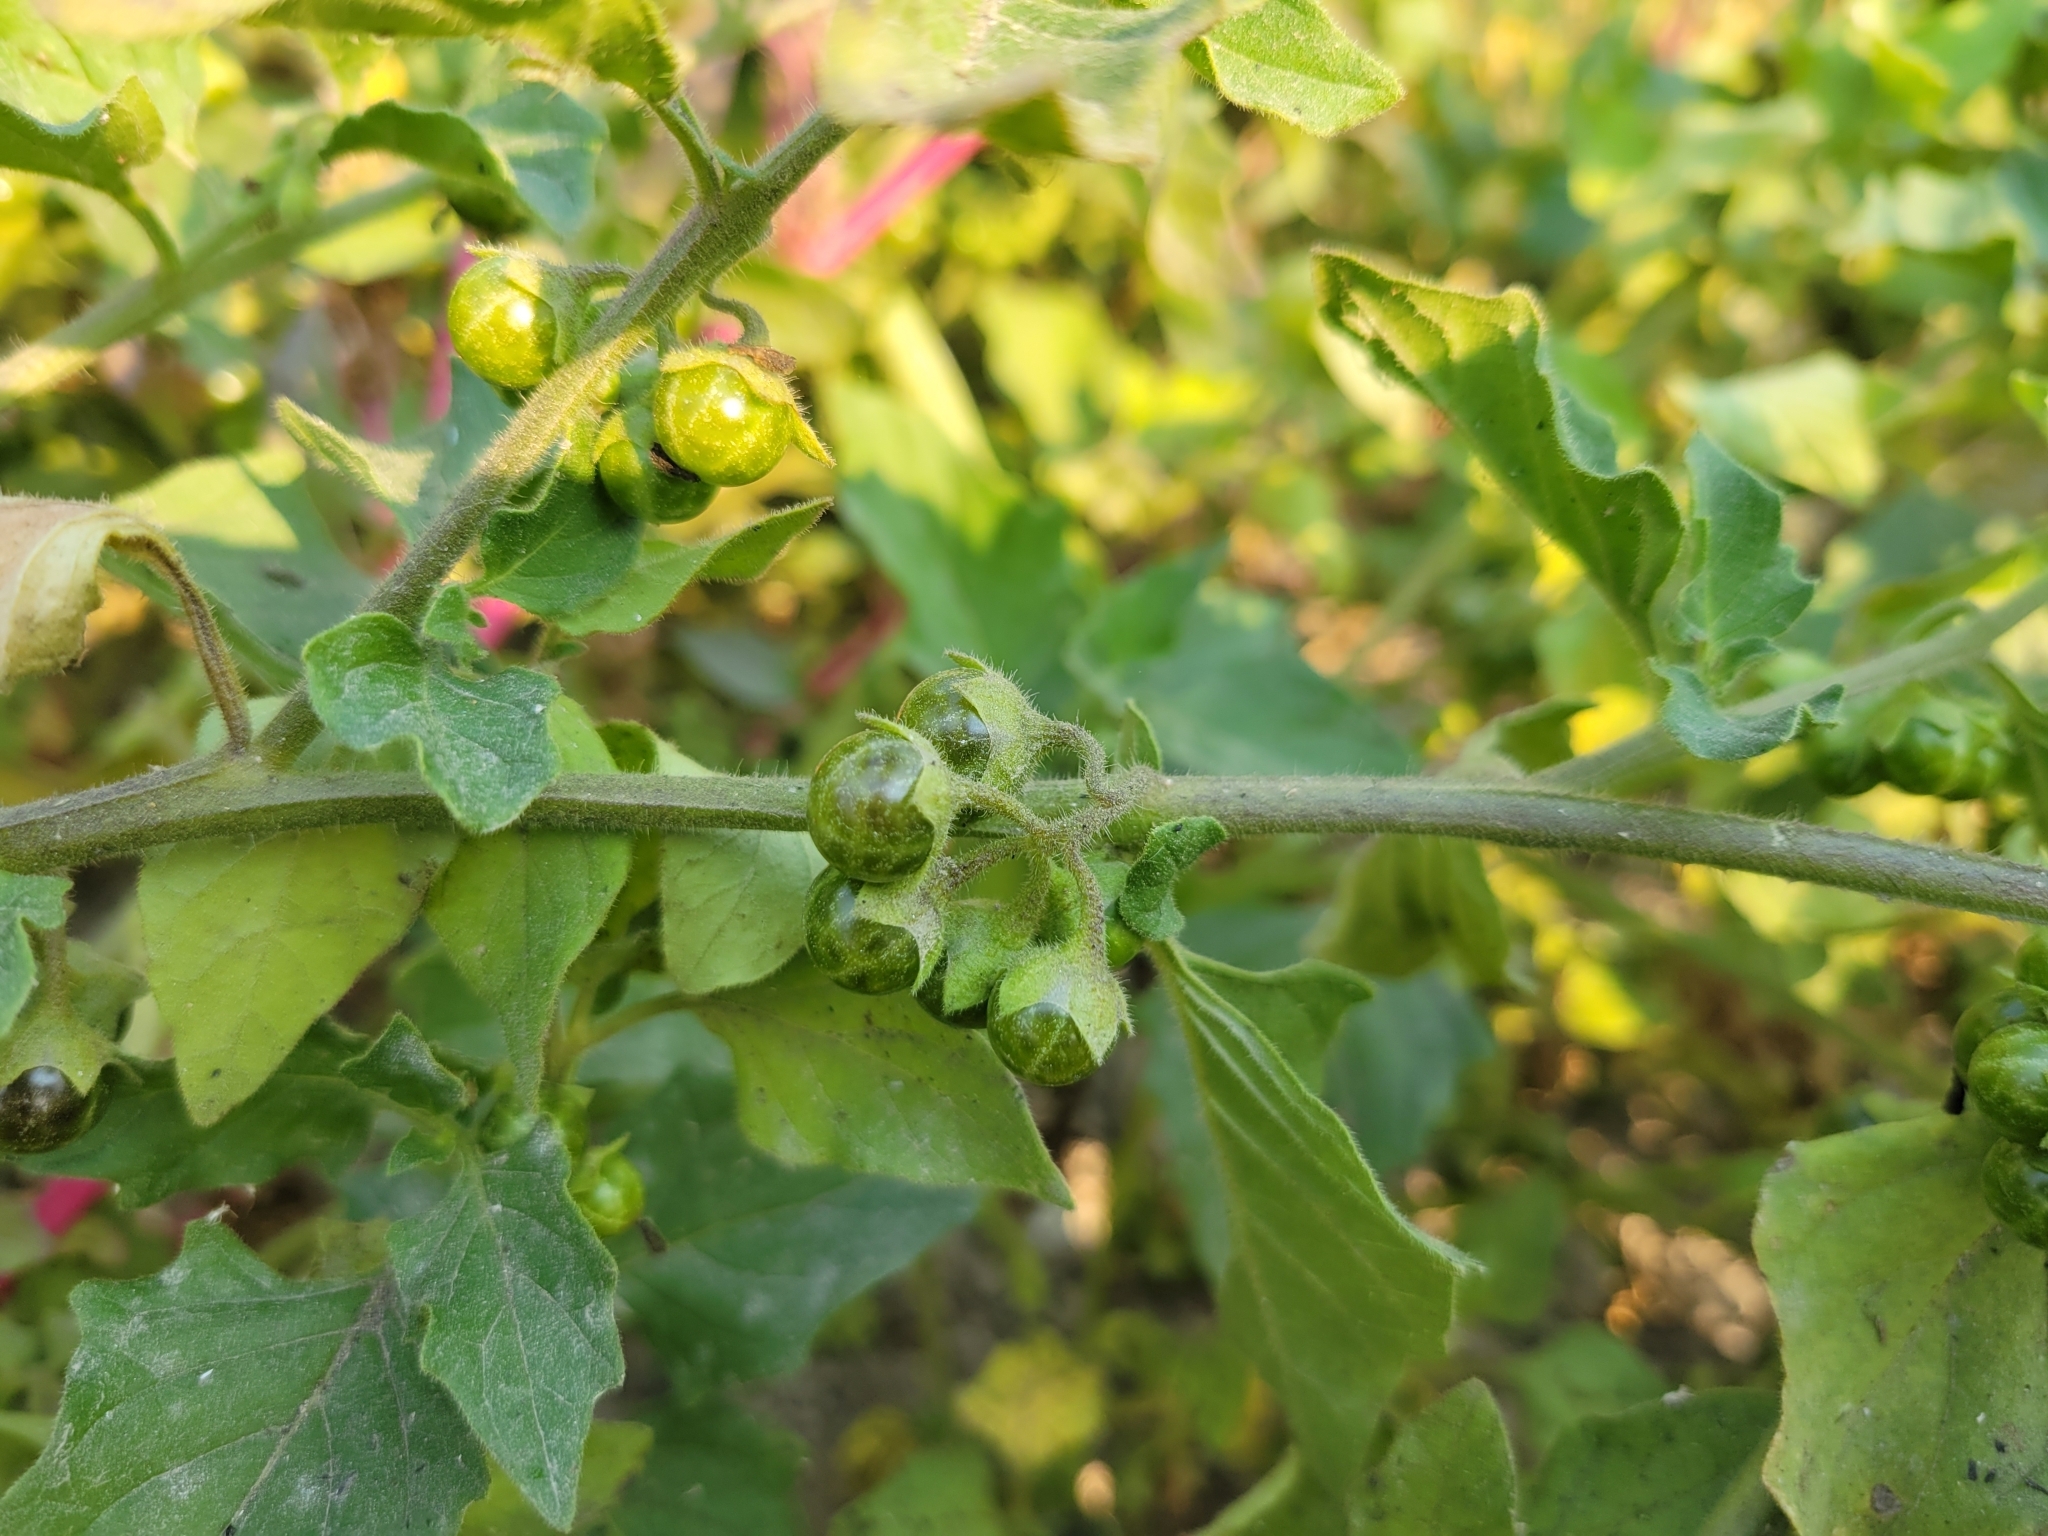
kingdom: Plantae
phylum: Tracheophyta
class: Magnoliopsida
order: Solanales
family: Solanaceae
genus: Solanum
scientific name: Solanum nitidibaccatum
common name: Hairy nightshade
